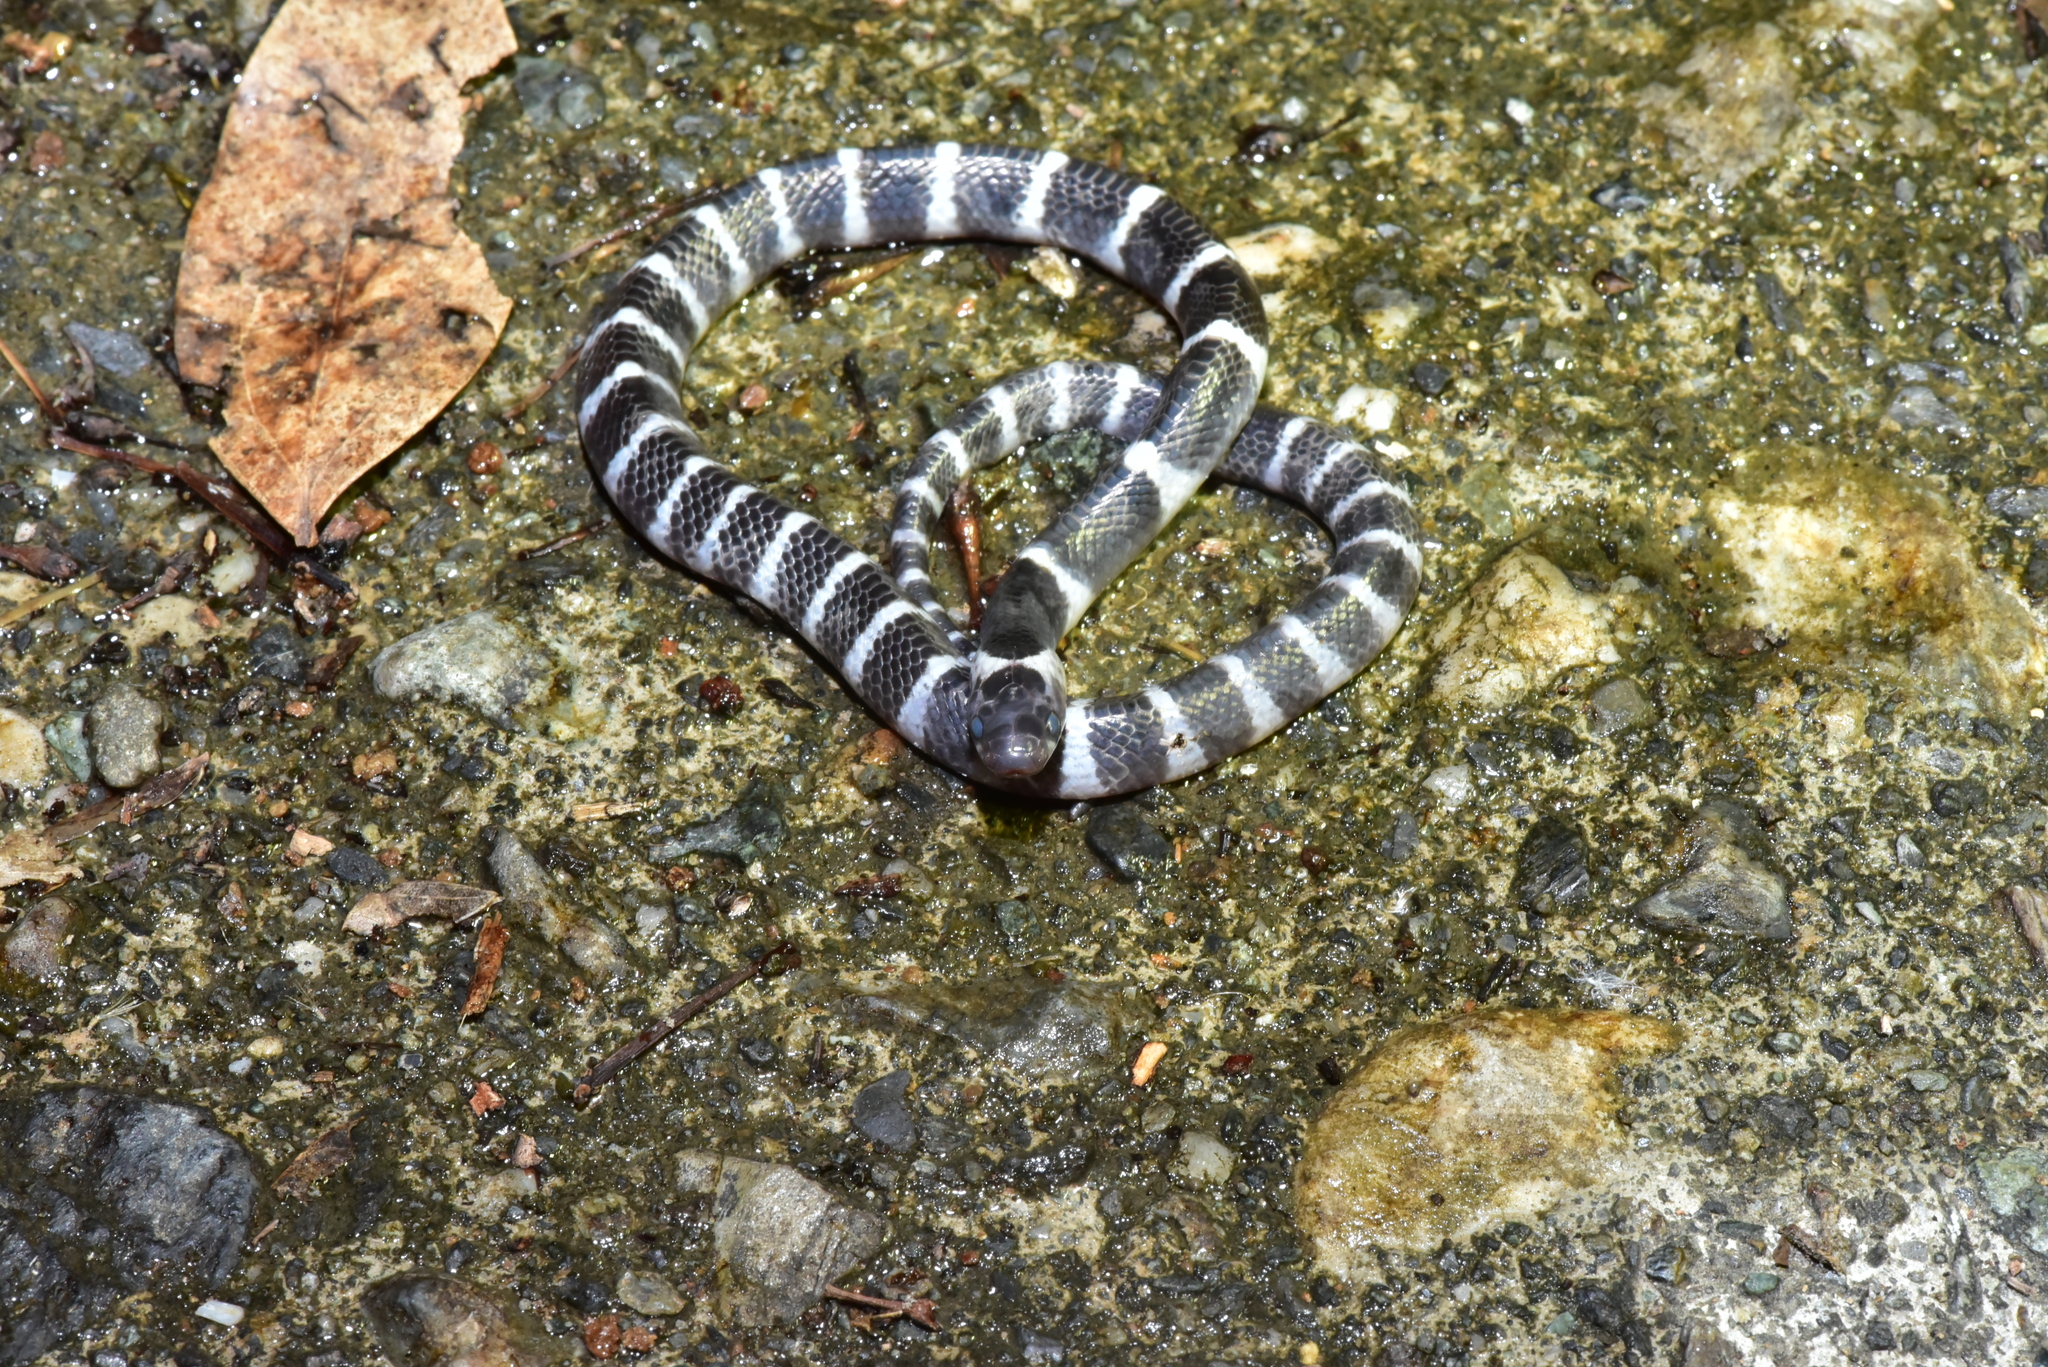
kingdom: Animalia
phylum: Chordata
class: Squamata
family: Elapidae
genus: Bungarus
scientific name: Bungarus multicinctus
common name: Many-banded krait
